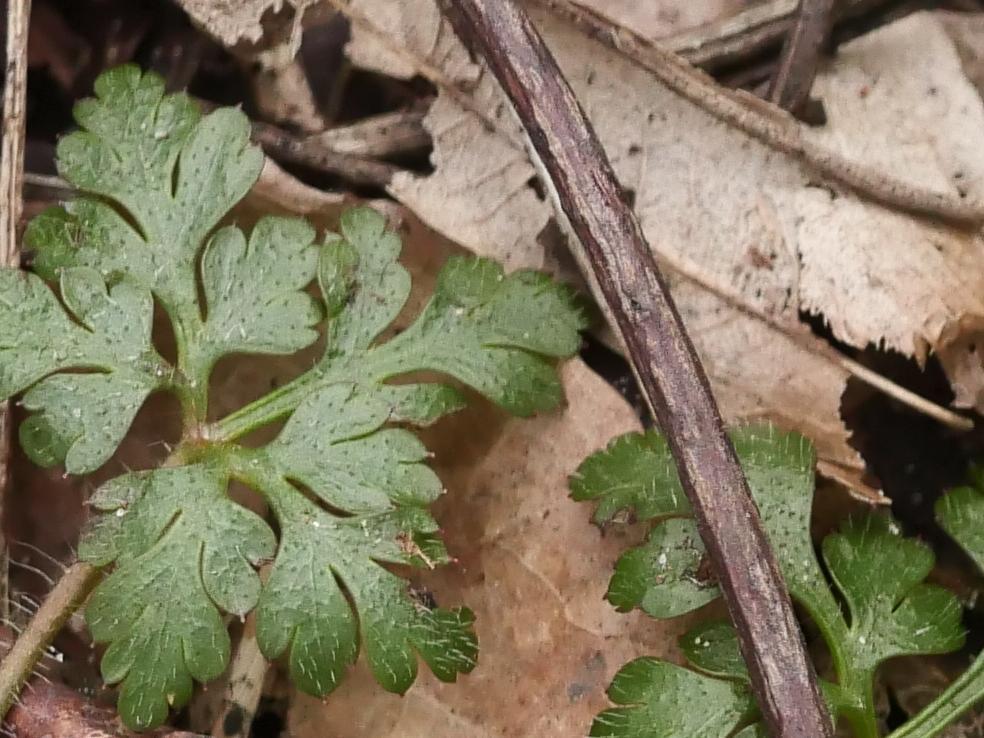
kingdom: Plantae
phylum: Tracheophyta
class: Magnoliopsida
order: Geraniales
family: Geraniaceae
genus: Geranium
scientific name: Geranium robertianum
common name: Herb-robert
